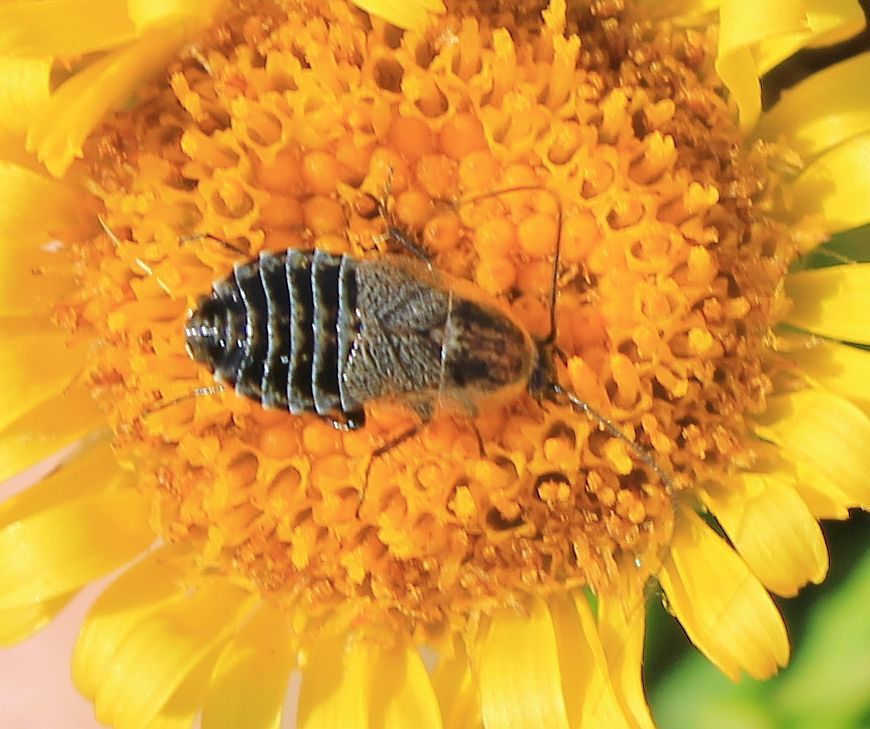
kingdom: Animalia
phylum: Arthropoda
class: Insecta
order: Blattodea
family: Ectobiidae
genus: Capraiellus
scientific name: Capraiellus panzeri
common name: Lesser cockroach
